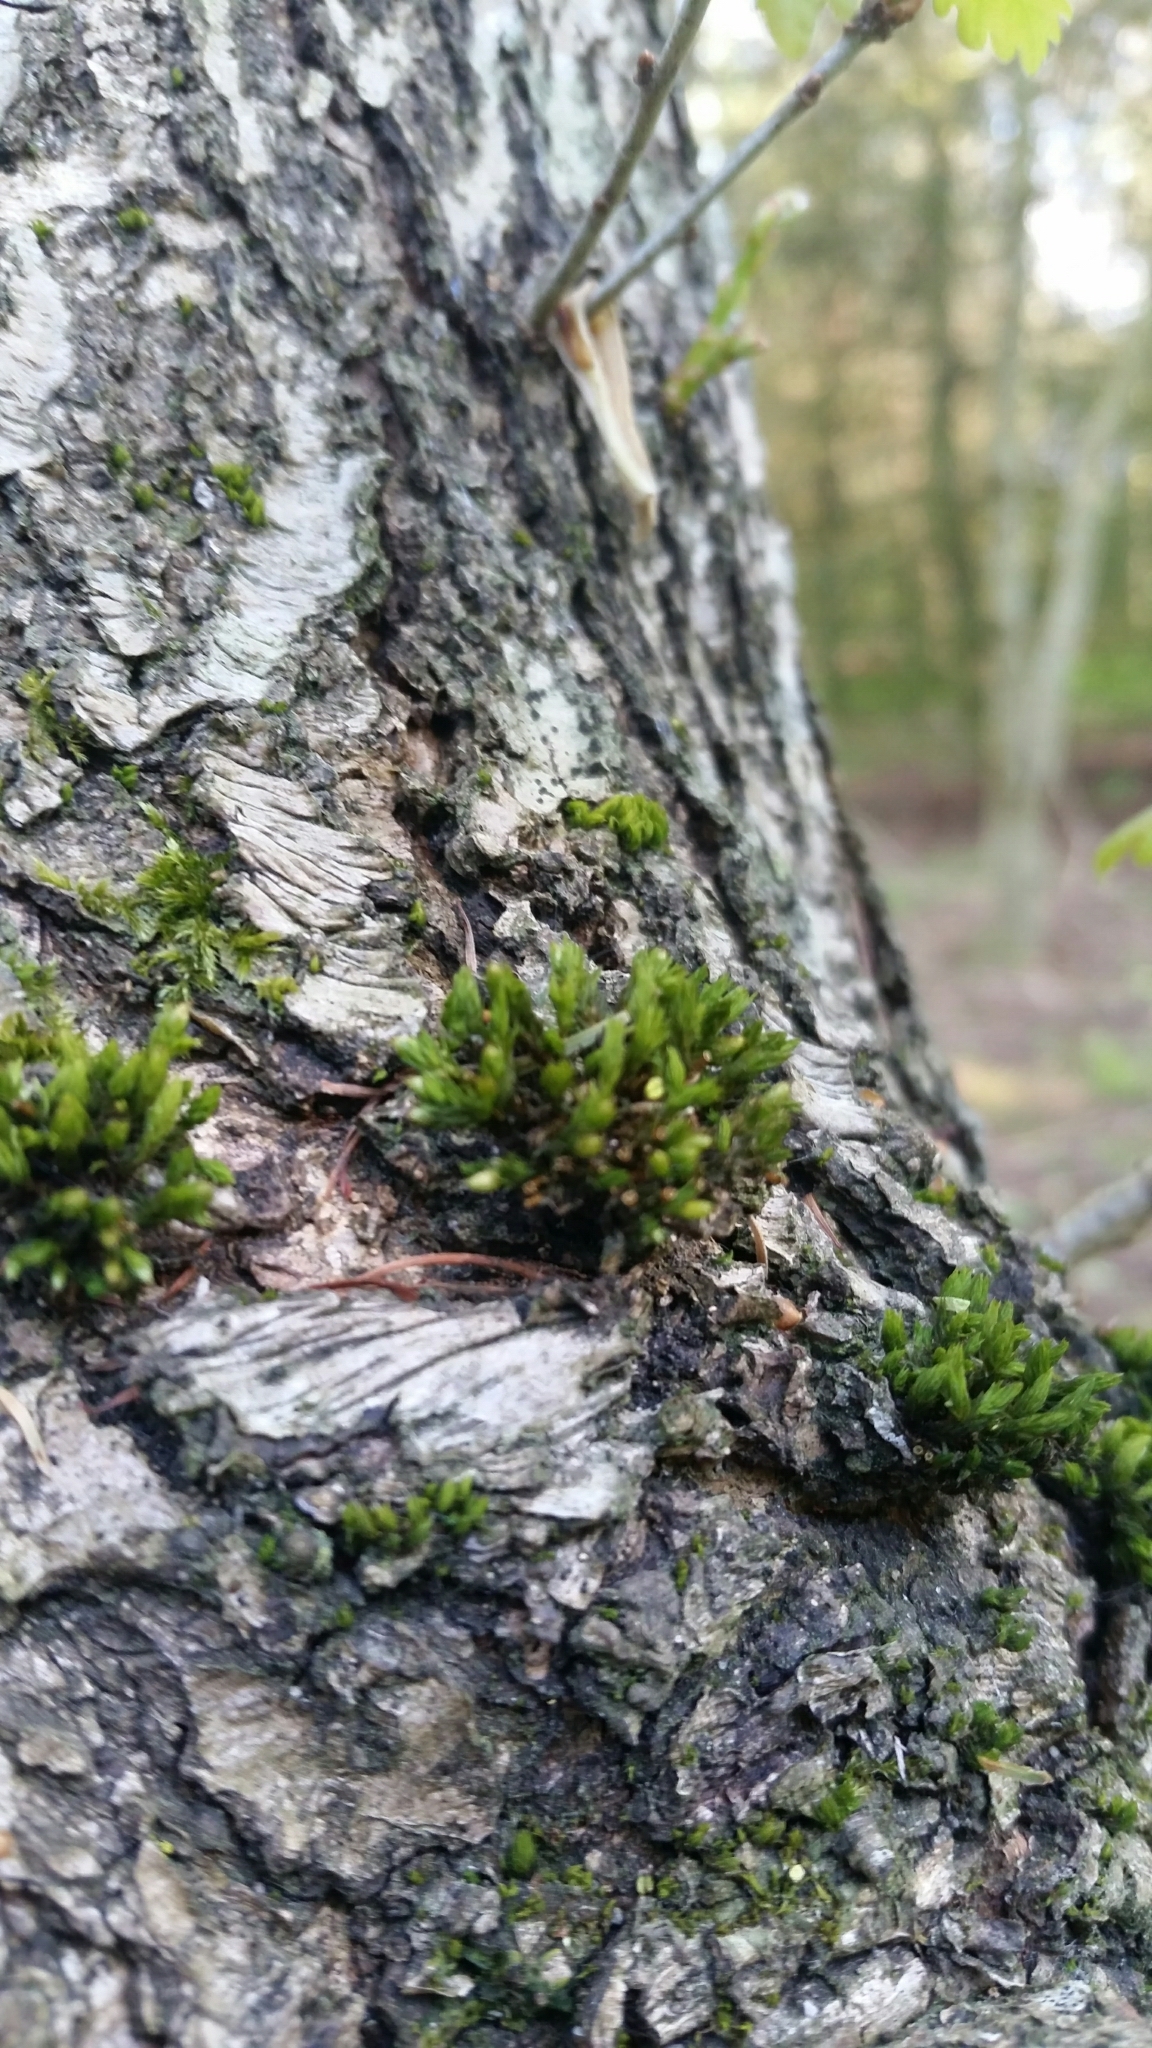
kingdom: Plantae
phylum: Bryophyta
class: Bryopsida
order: Orthotrichales
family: Orthotrichaceae
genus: Lewinskya
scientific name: Lewinskya affinis
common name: Wood bristle-moss
